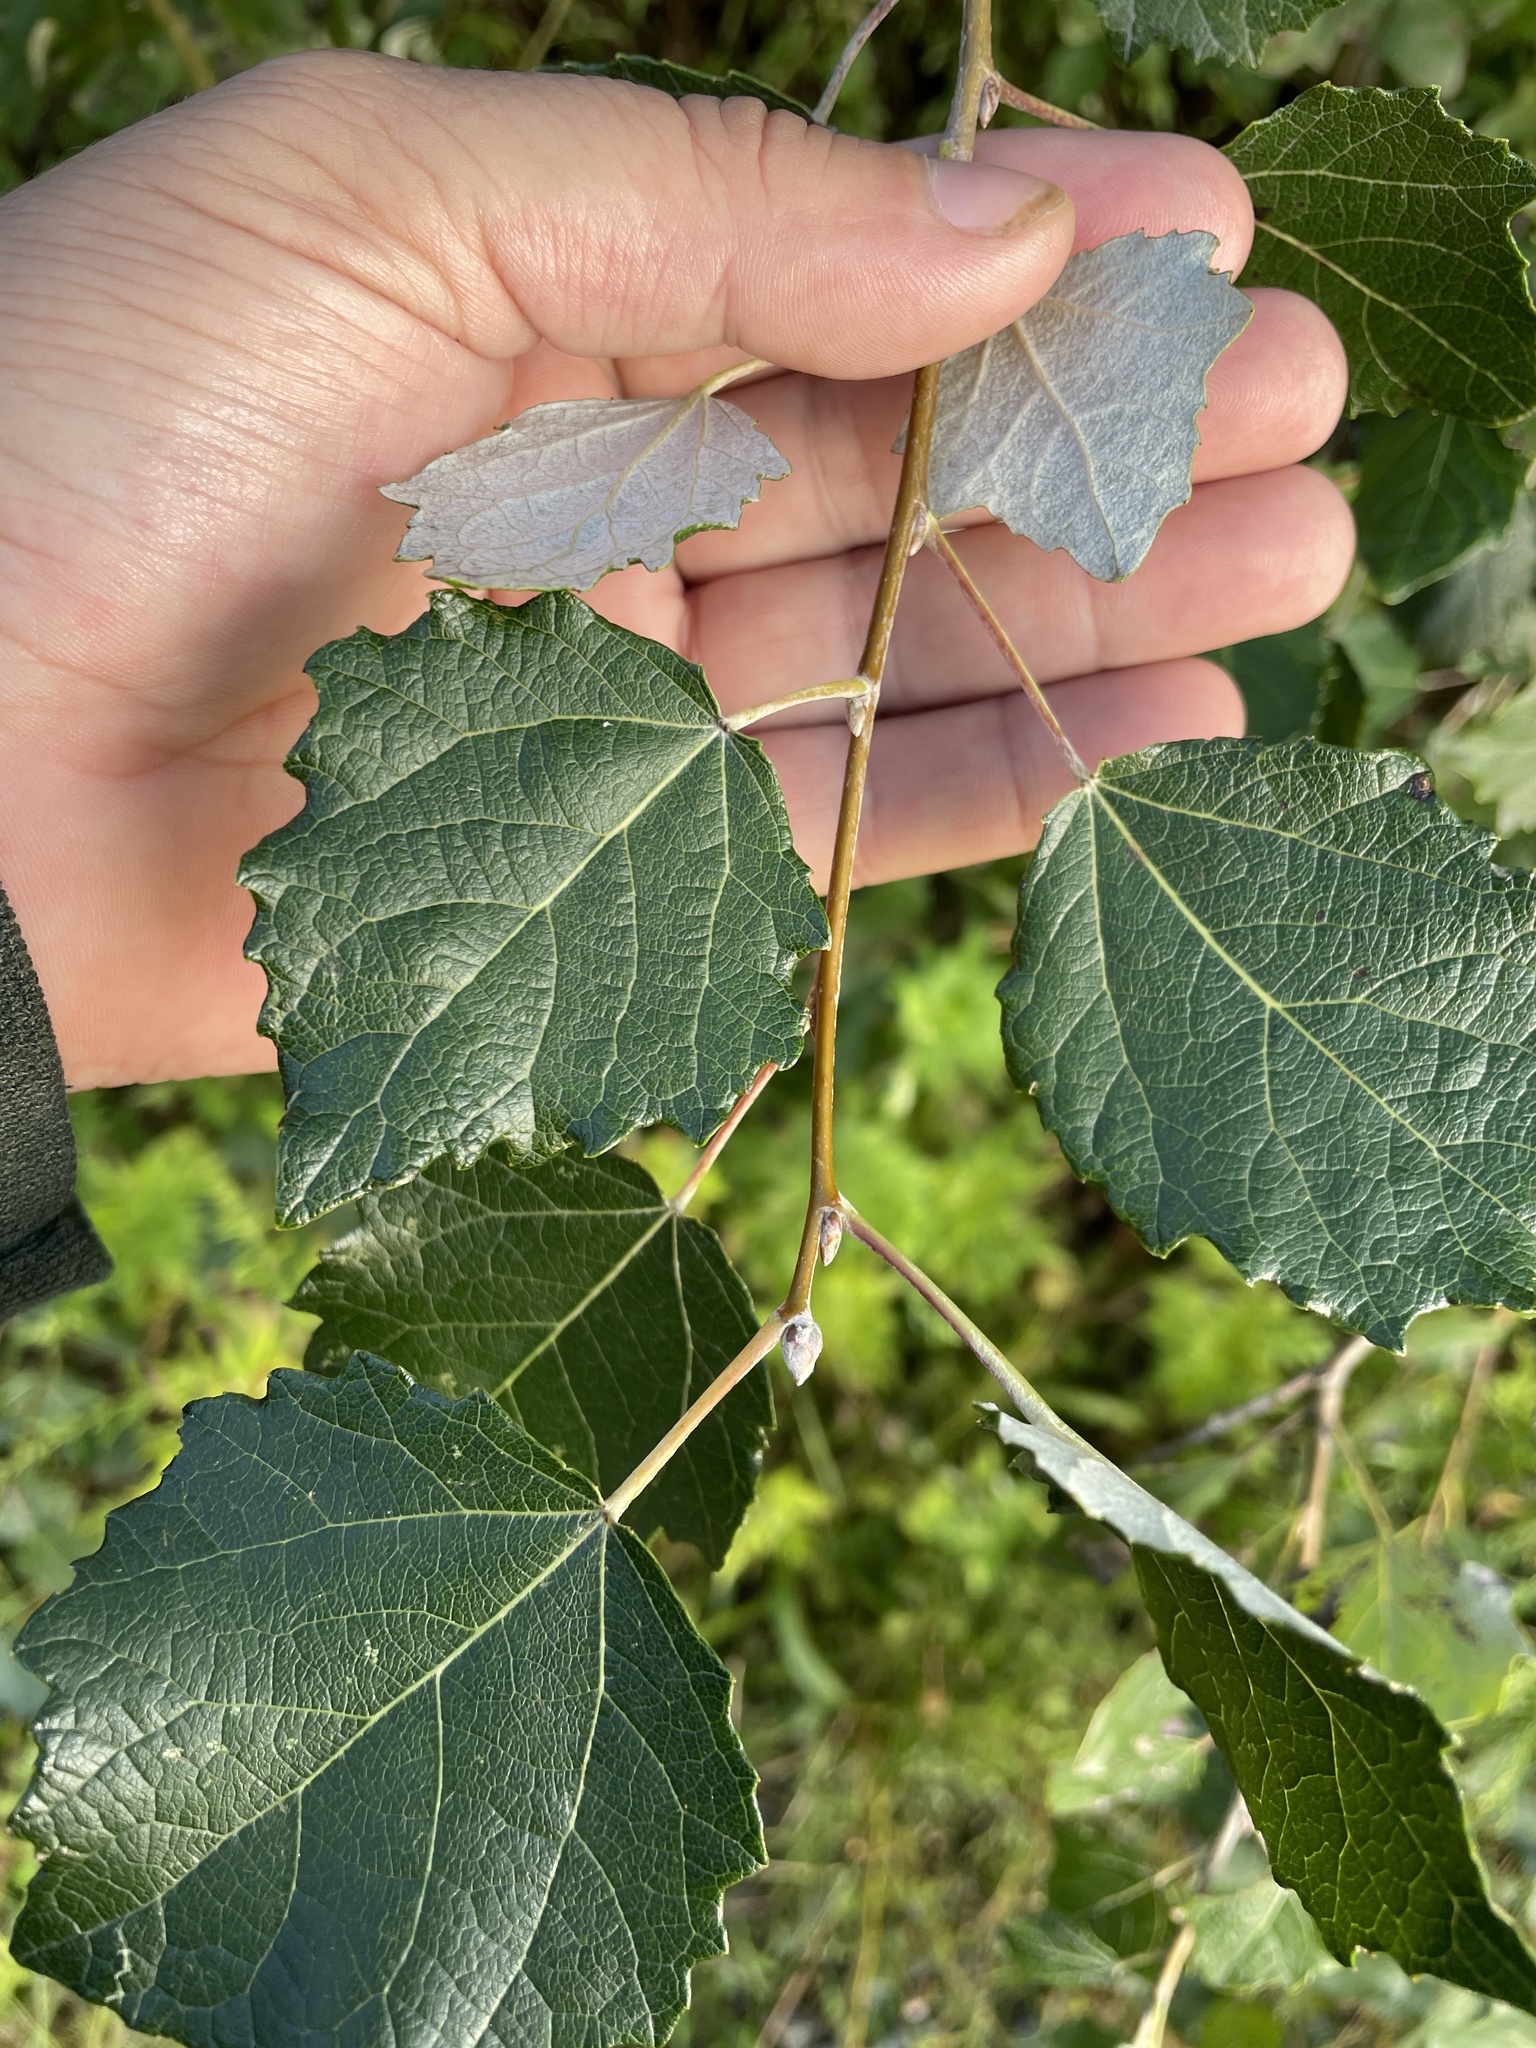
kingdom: Plantae
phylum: Tracheophyta
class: Magnoliopsida
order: Malpighiales
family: Salicaceae
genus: Populus
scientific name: Populus alba
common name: White poplar
